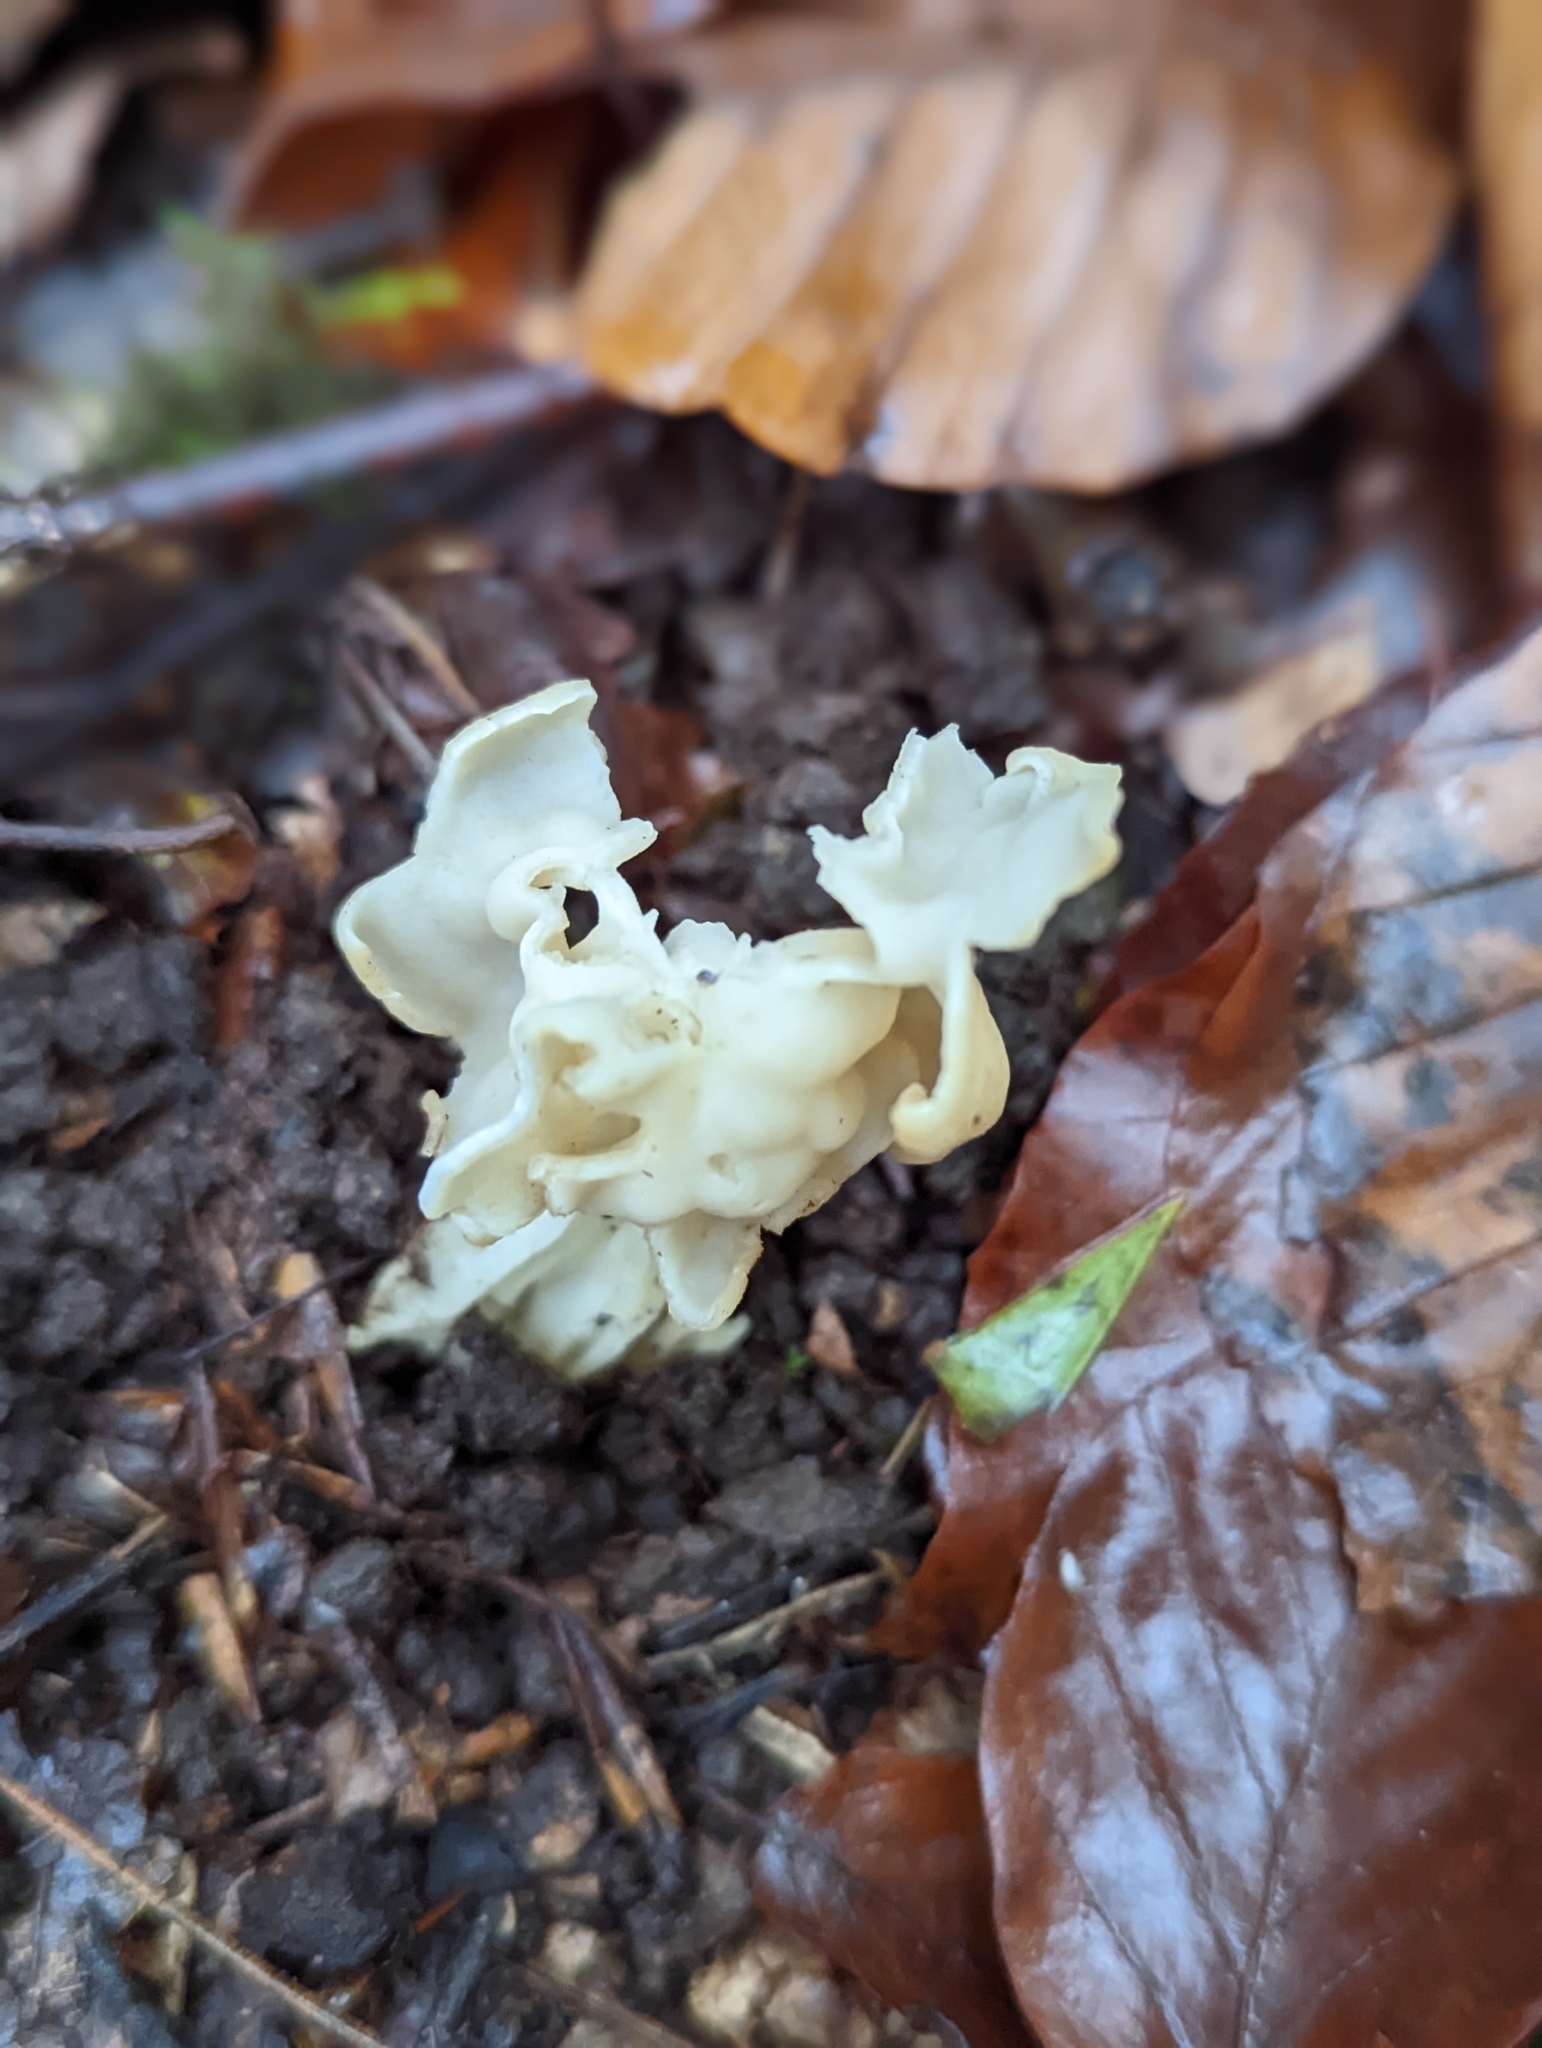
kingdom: Fungi
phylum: Ascomycota
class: Pezizomycetes
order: Pezizales
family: Helvellaceae
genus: Helvella
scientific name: Helvella crispa
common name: White saddle
